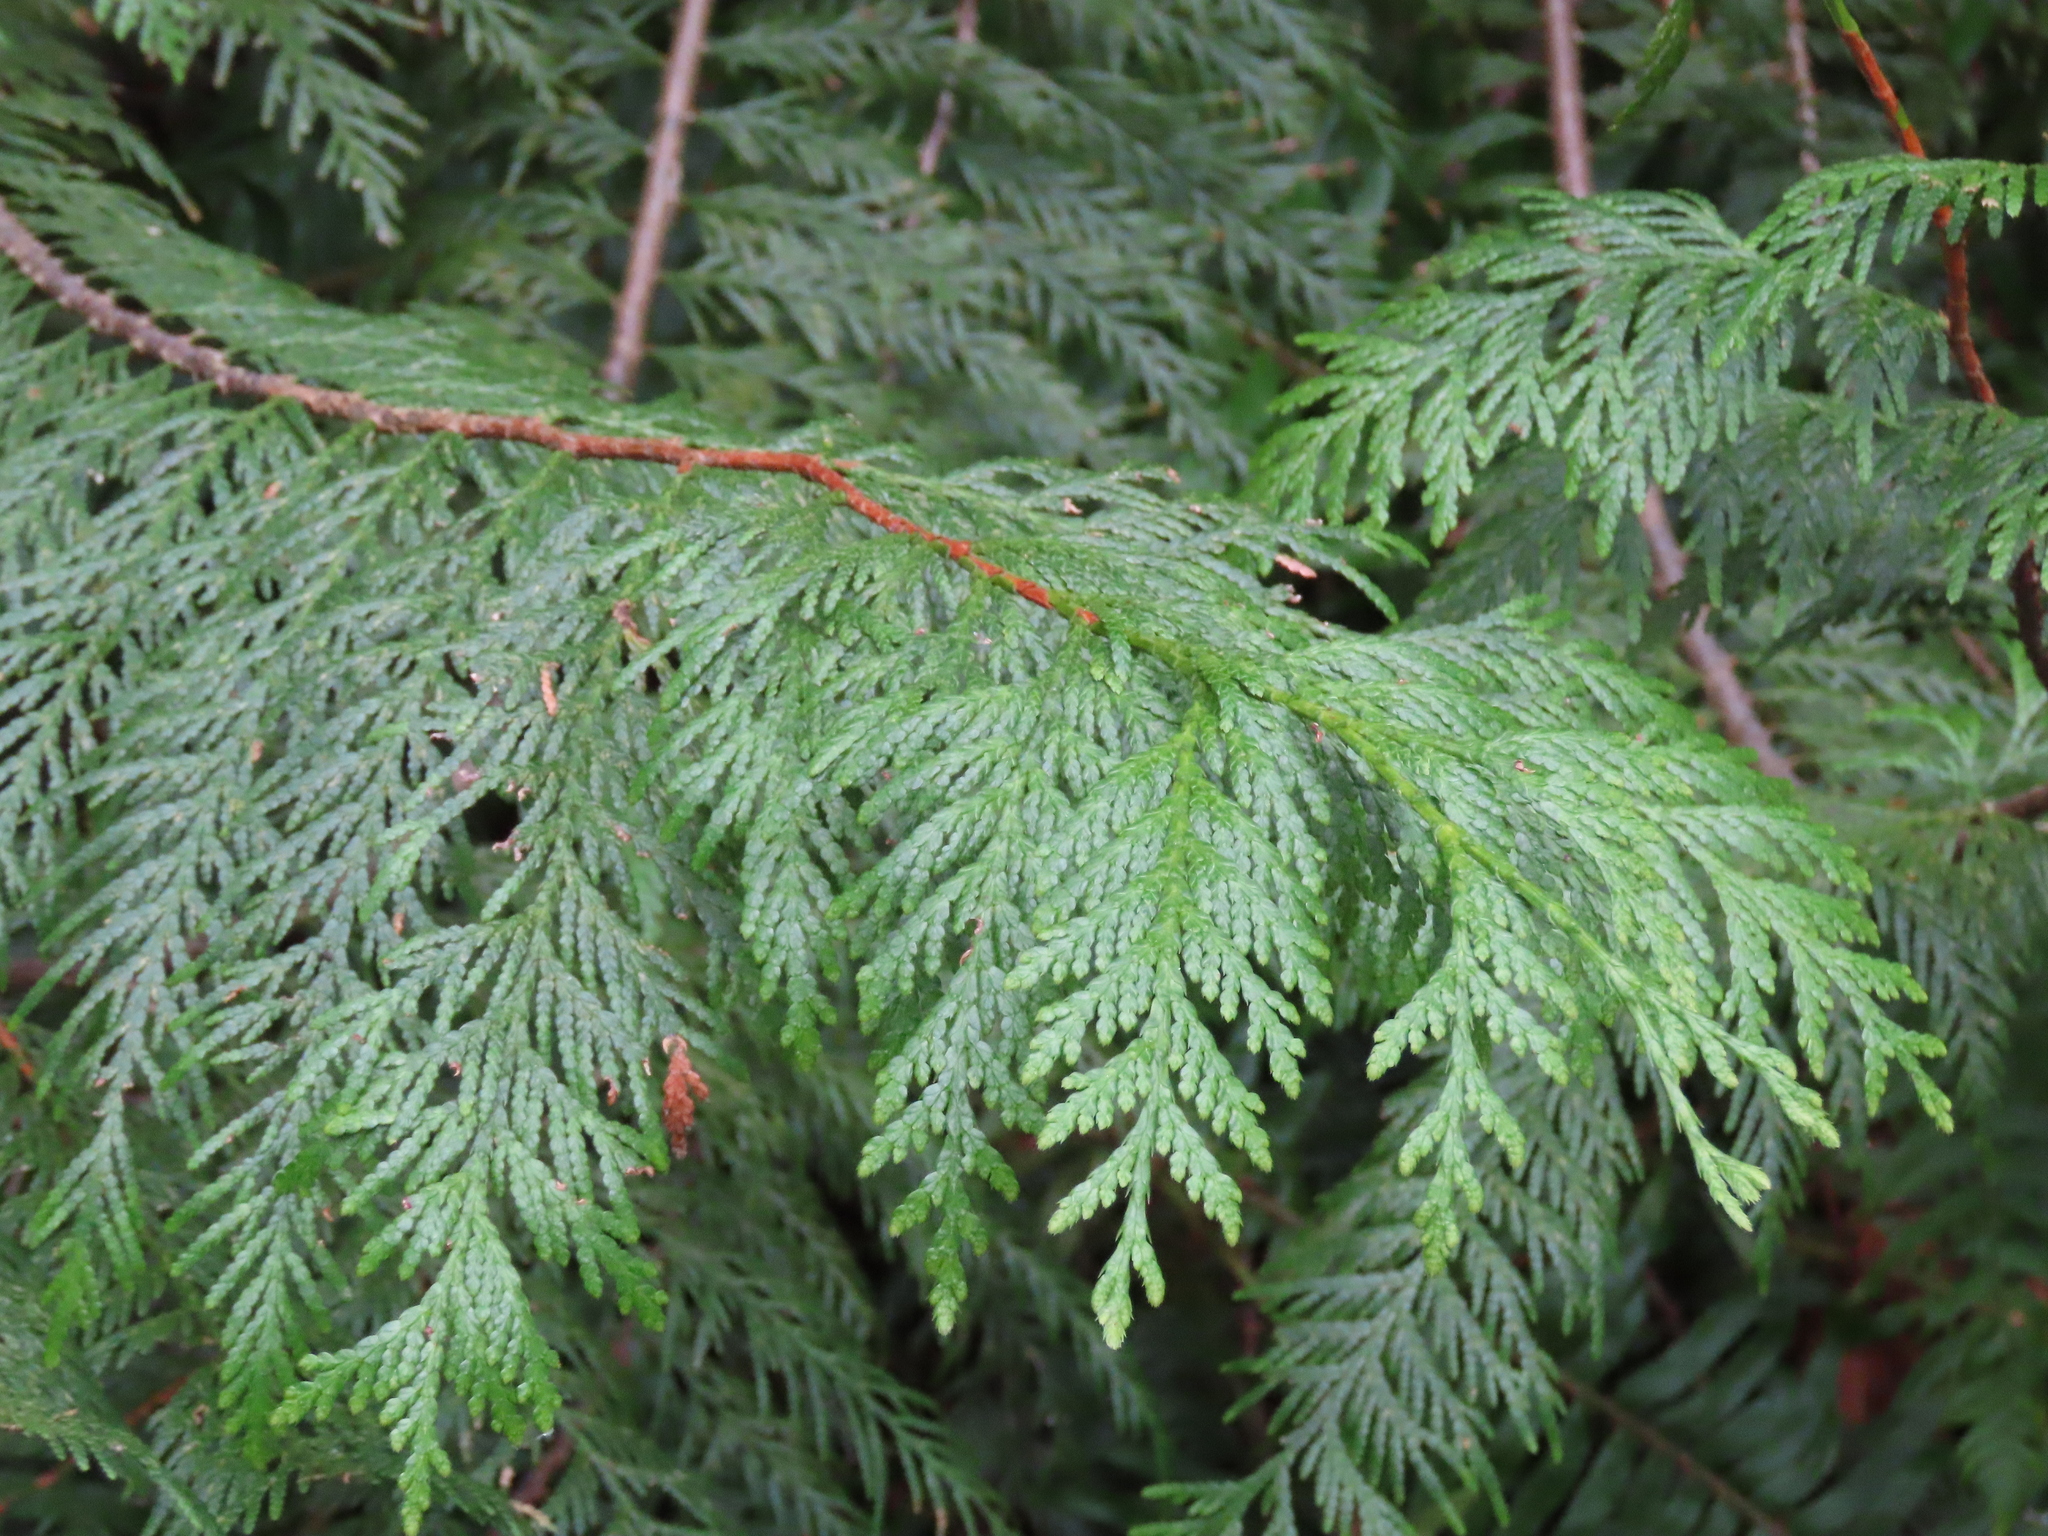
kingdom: Plantae
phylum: Tracheophyta
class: Pinopsida
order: Pinales
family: Cupressaceae
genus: Thuja
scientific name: Thuja plicata
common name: Western red-cedar
